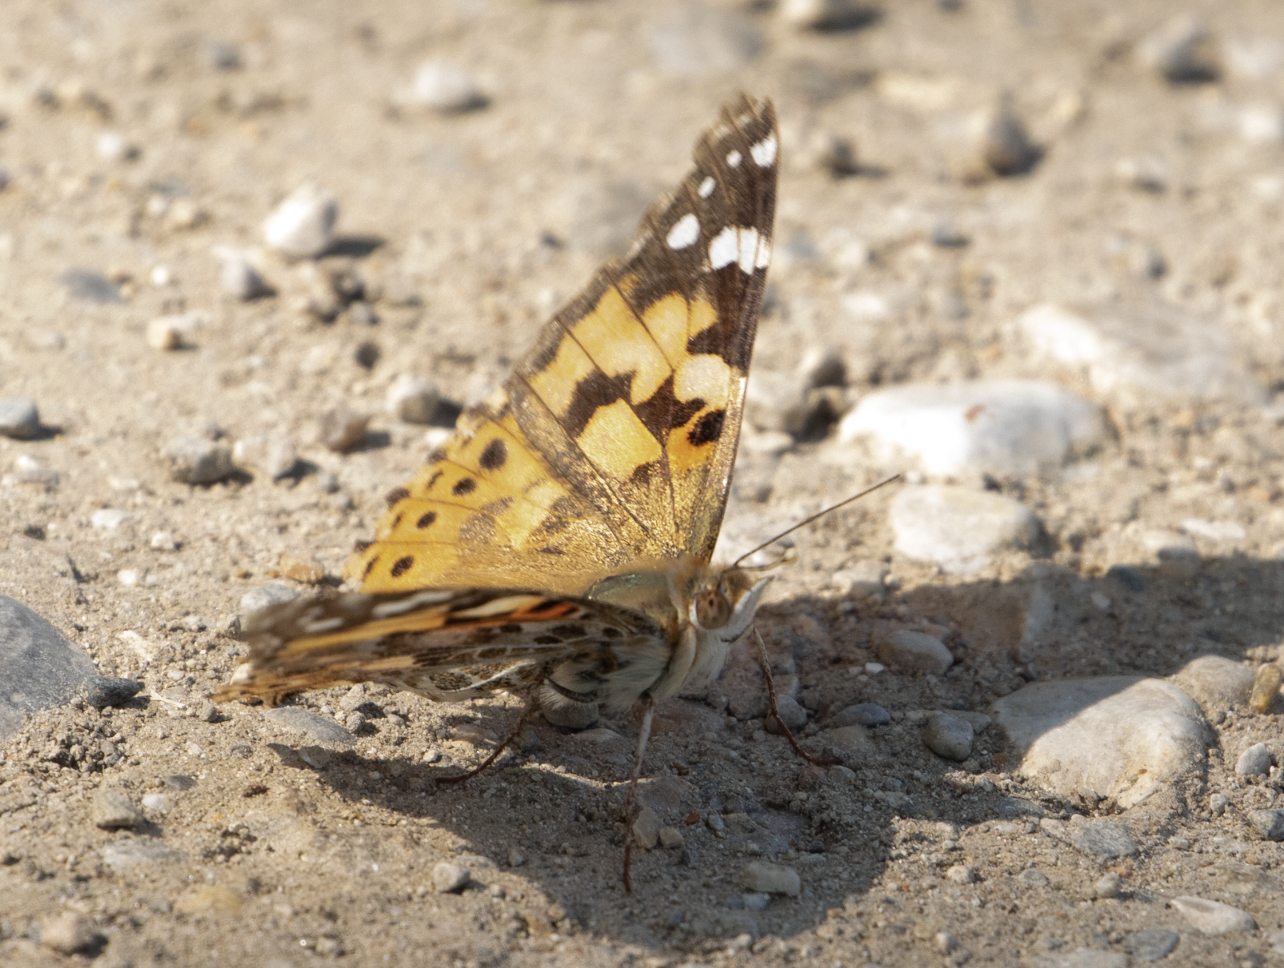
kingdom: Animalia
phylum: Arthropoda
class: Insecta
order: Lepidoptera
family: Nymphalidae
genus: Vanessa
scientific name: Vanessa cardui
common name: Painted lady
